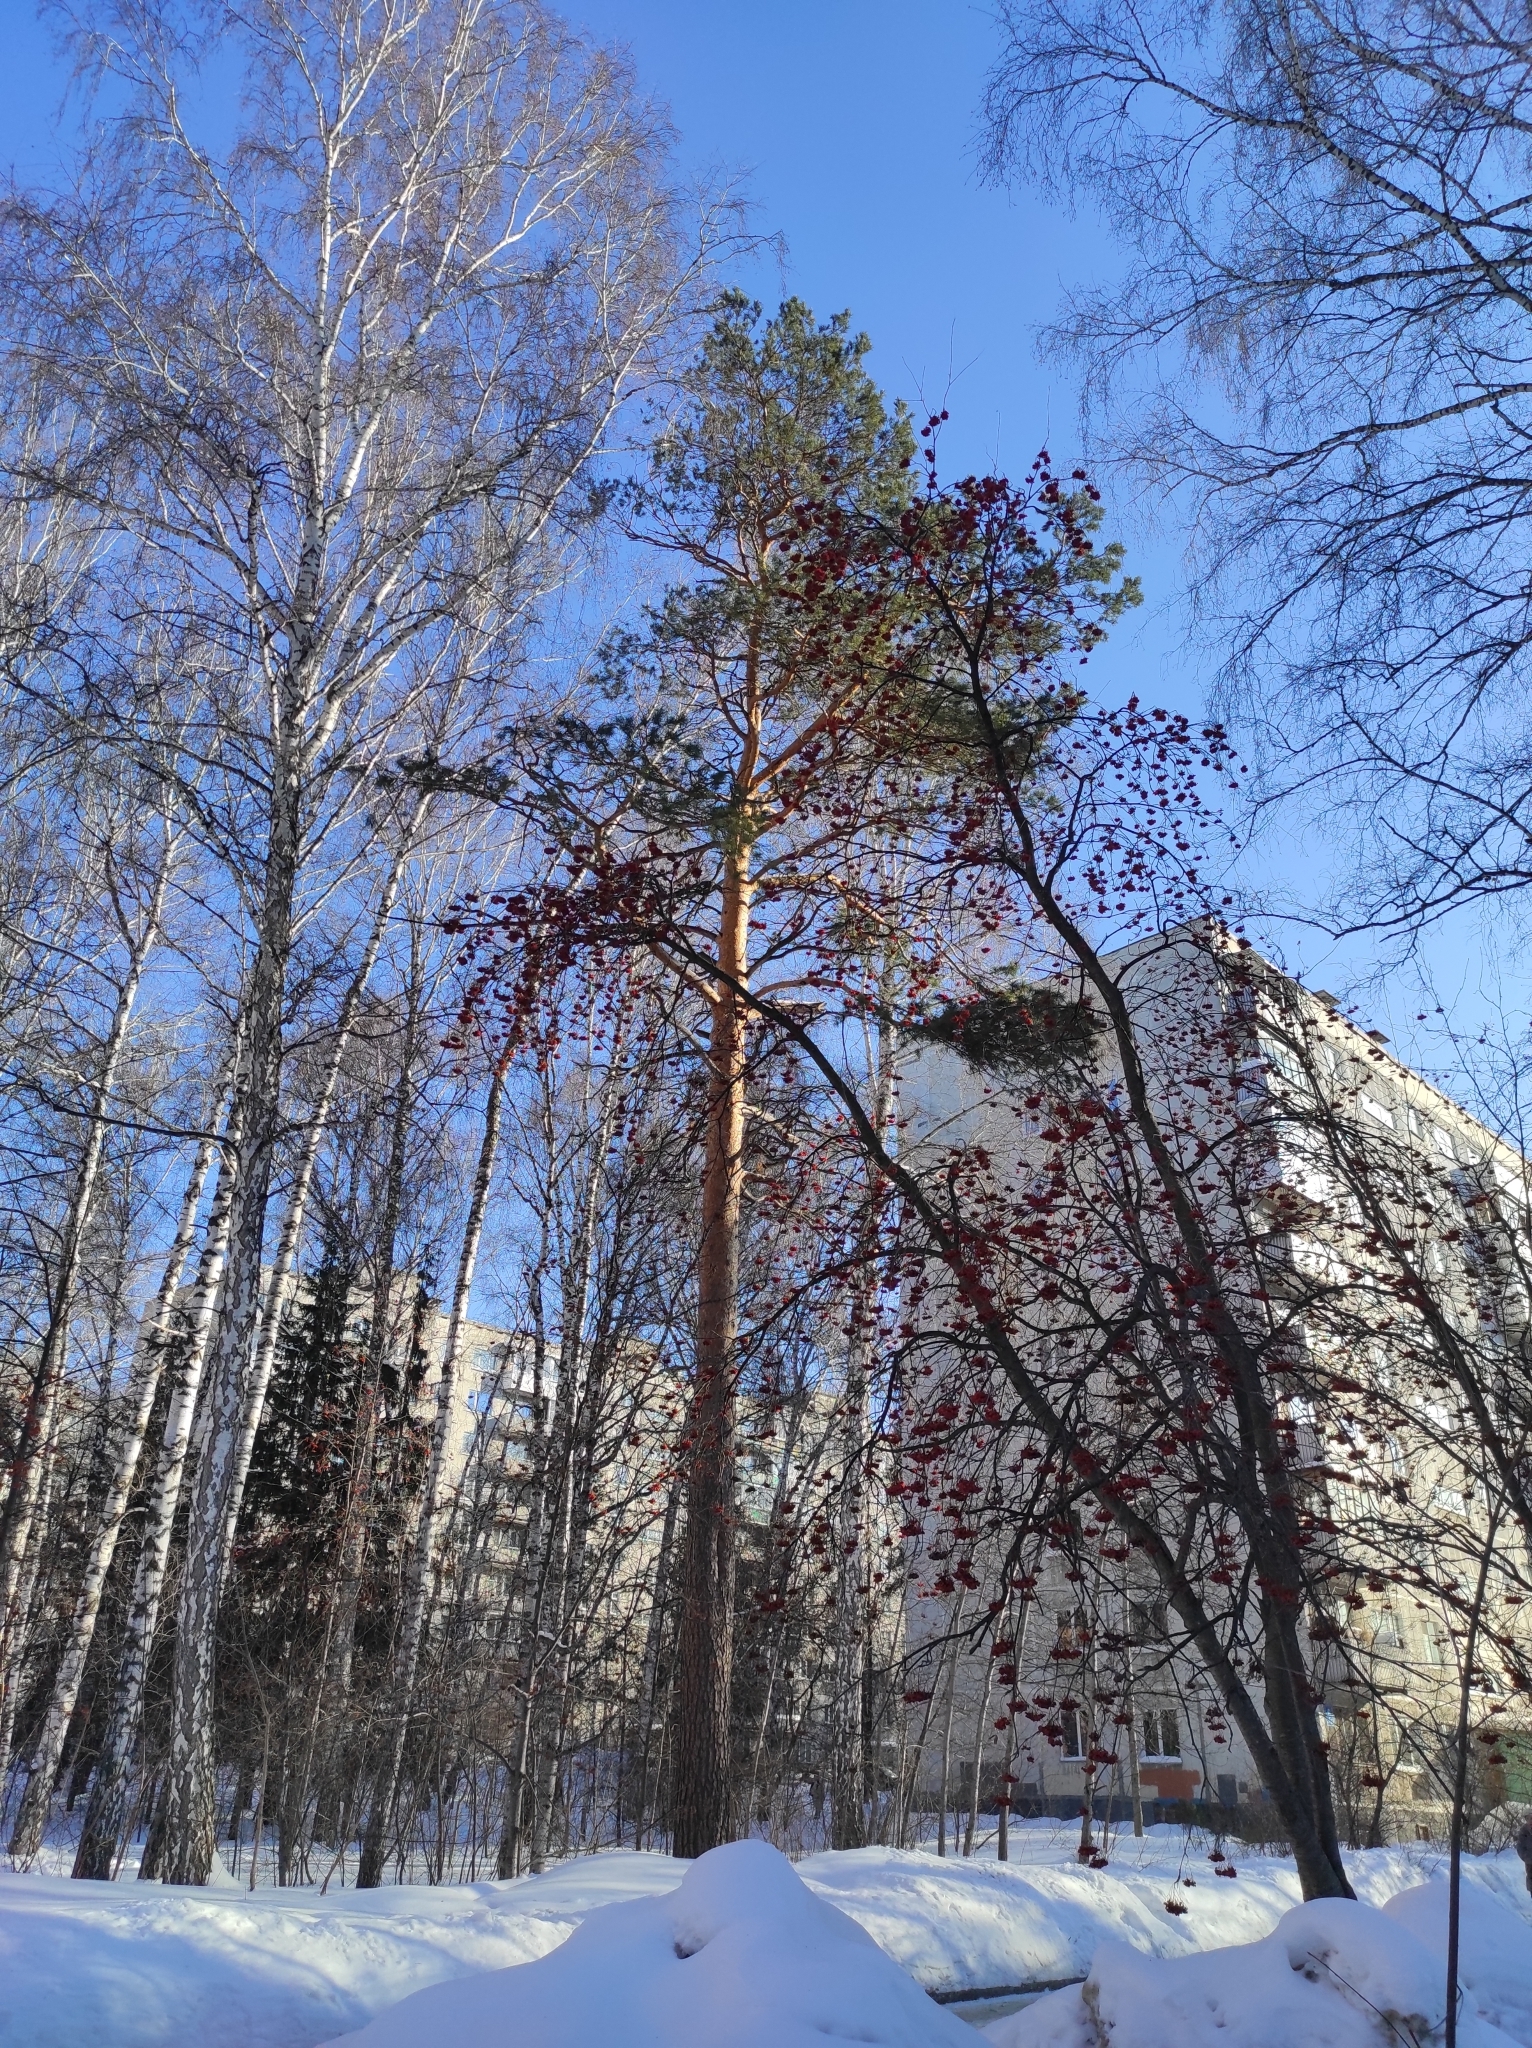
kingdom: Plantae
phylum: Tracheophyta
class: Pinopsida
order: Pinales
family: Pinaceae
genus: Pinus
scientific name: Pinus sylvestris
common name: Scots pine
